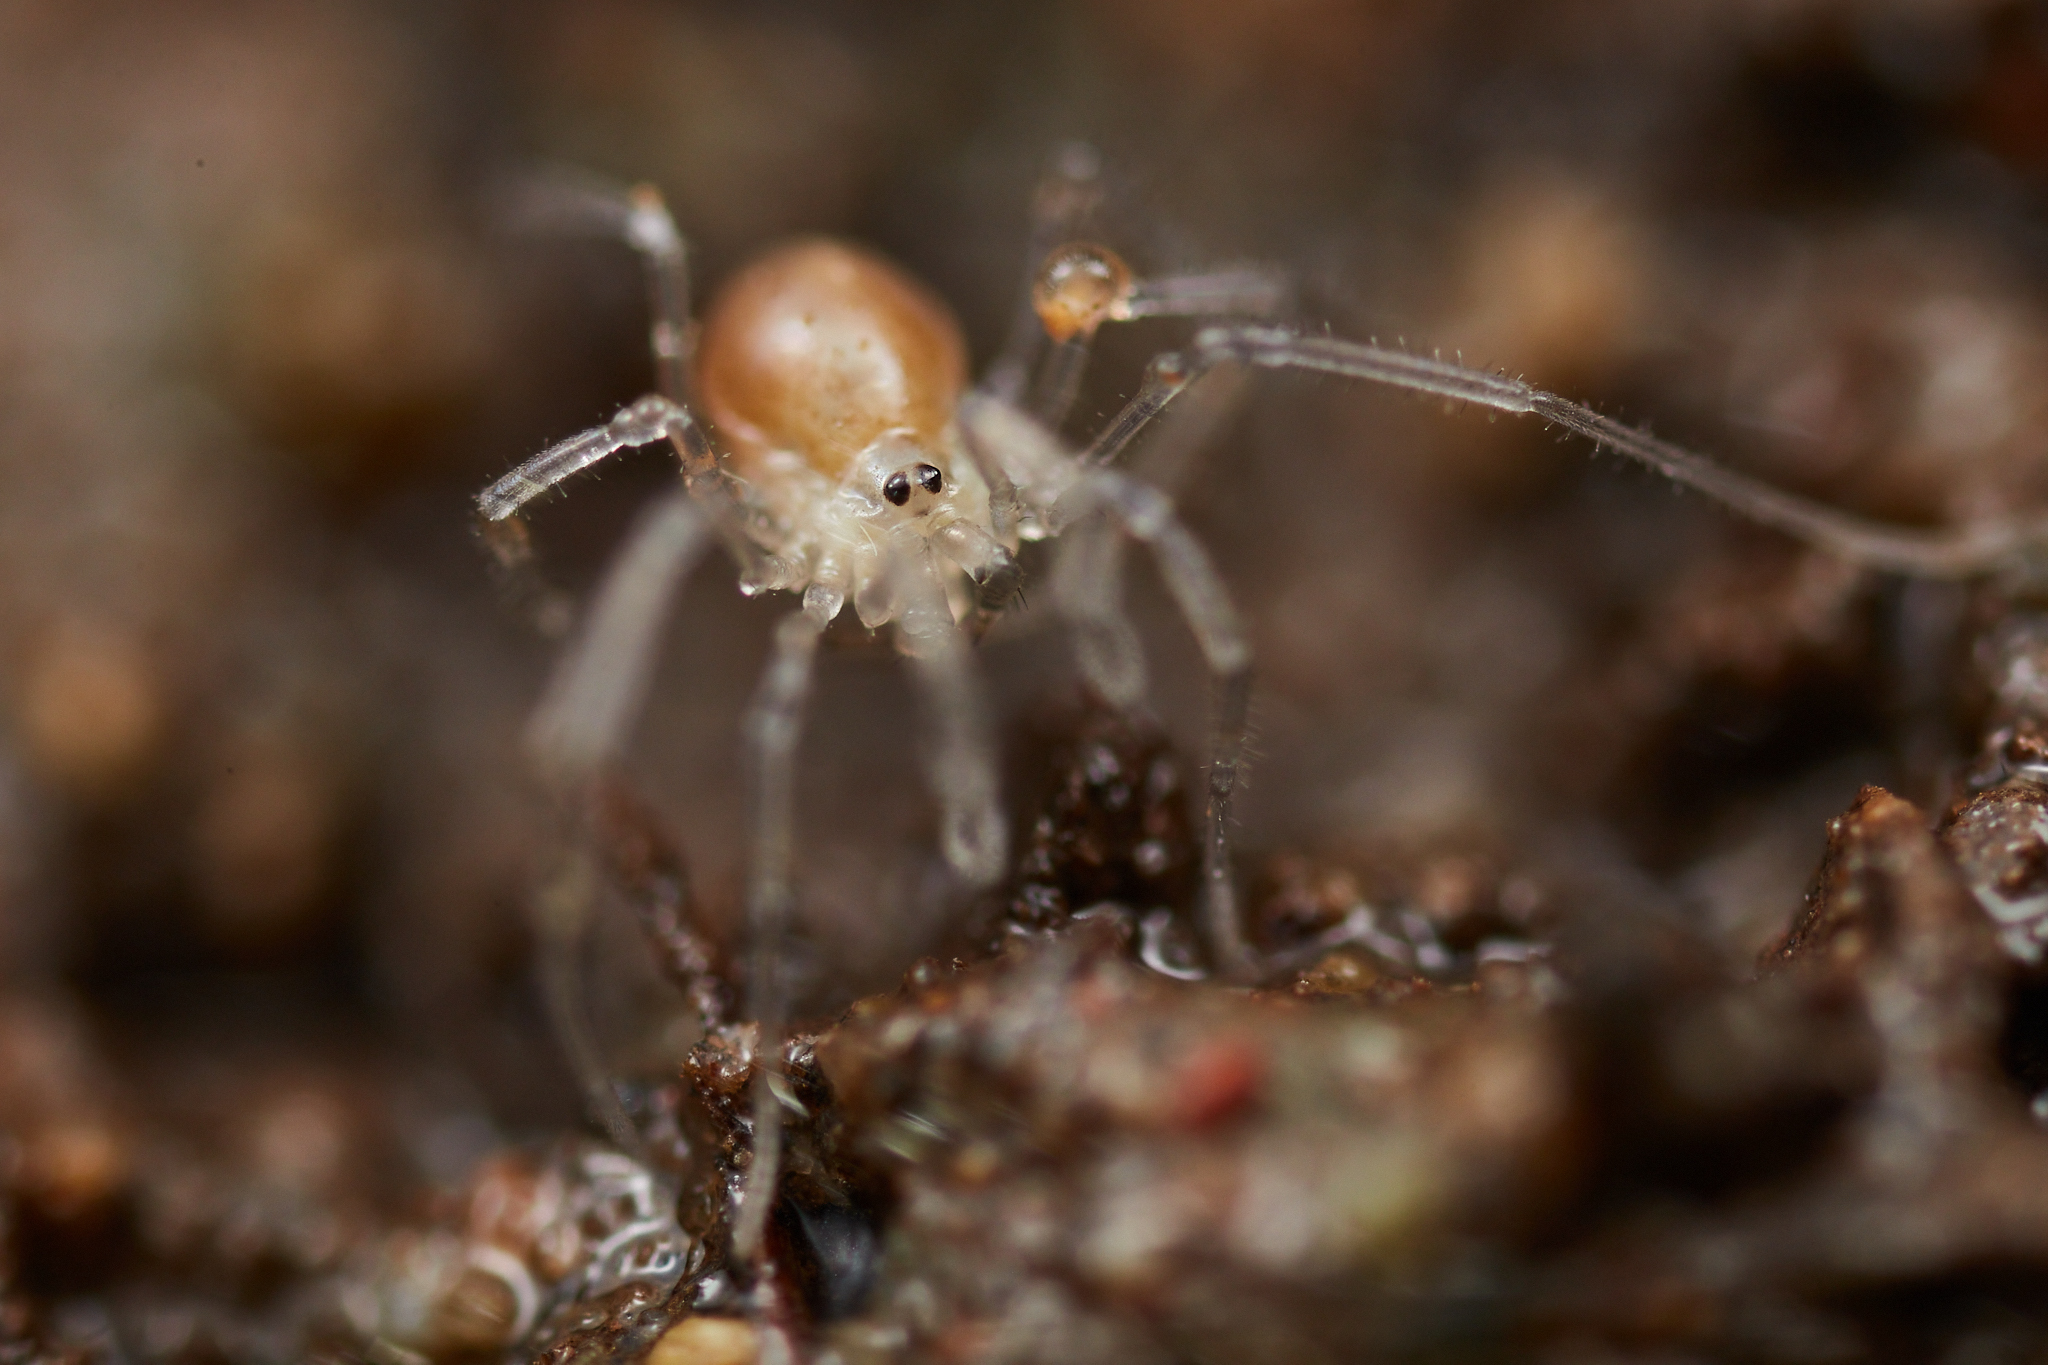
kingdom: Animalia
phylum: Arthropoda
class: Arachnida
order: Opiliones
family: Taracidae
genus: Taracus
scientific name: Taracus ubicki
